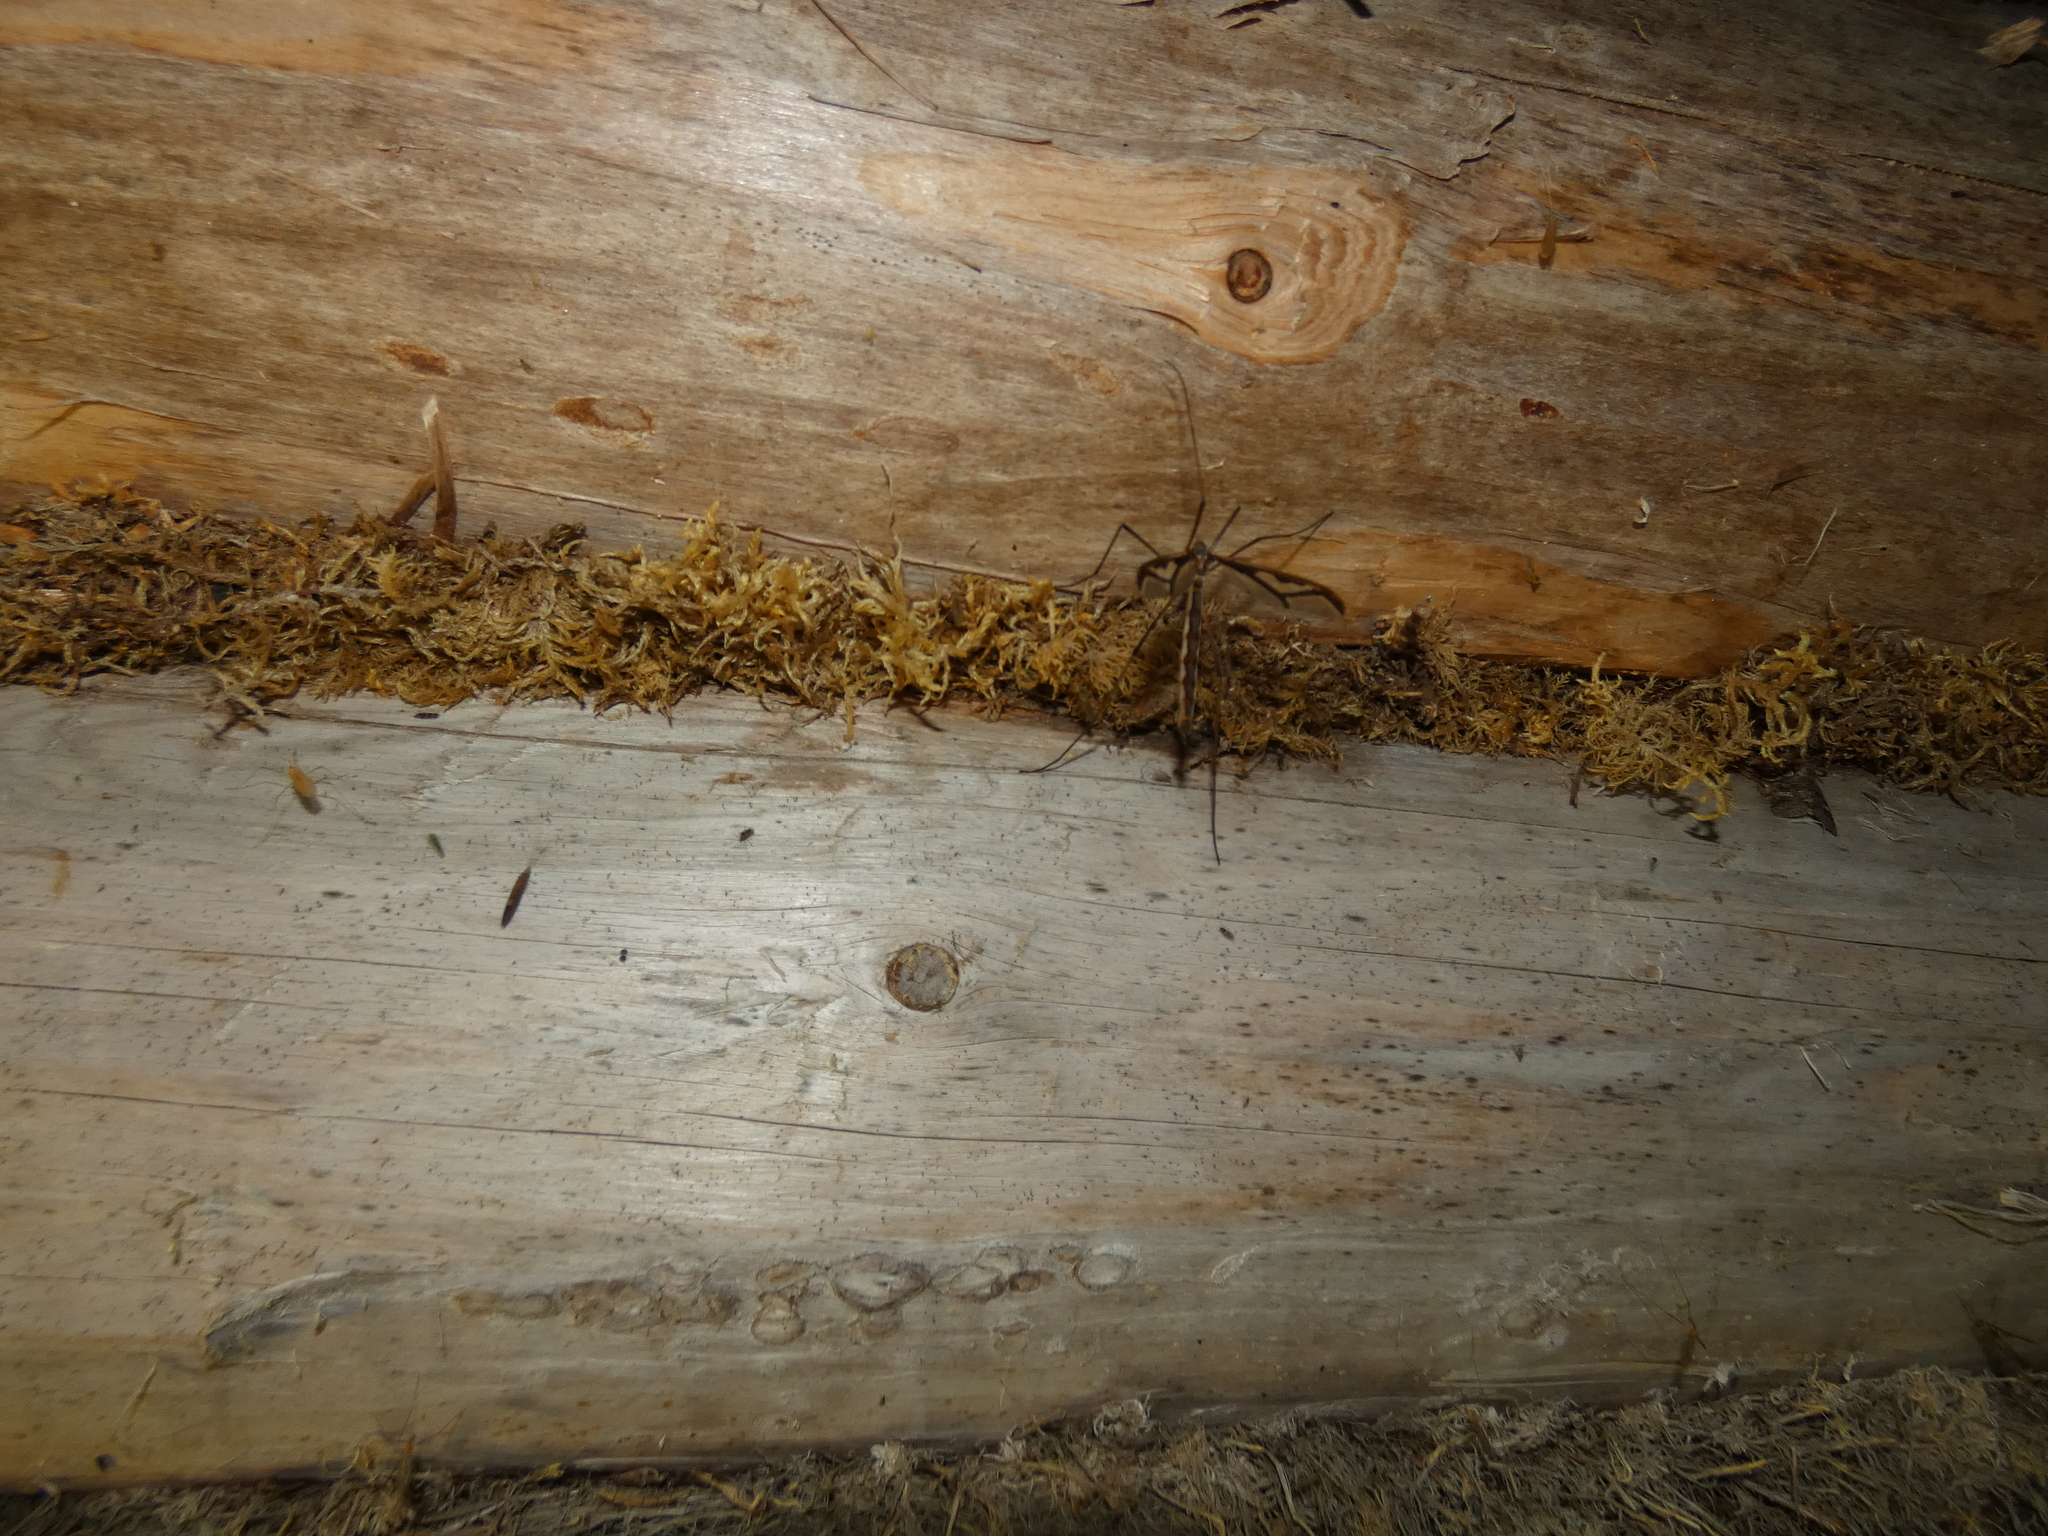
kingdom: Animalia
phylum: Arthropoda
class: Insecta
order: Diptera
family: Pediciidae
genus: Pedicia
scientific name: Pedicia rivosa
